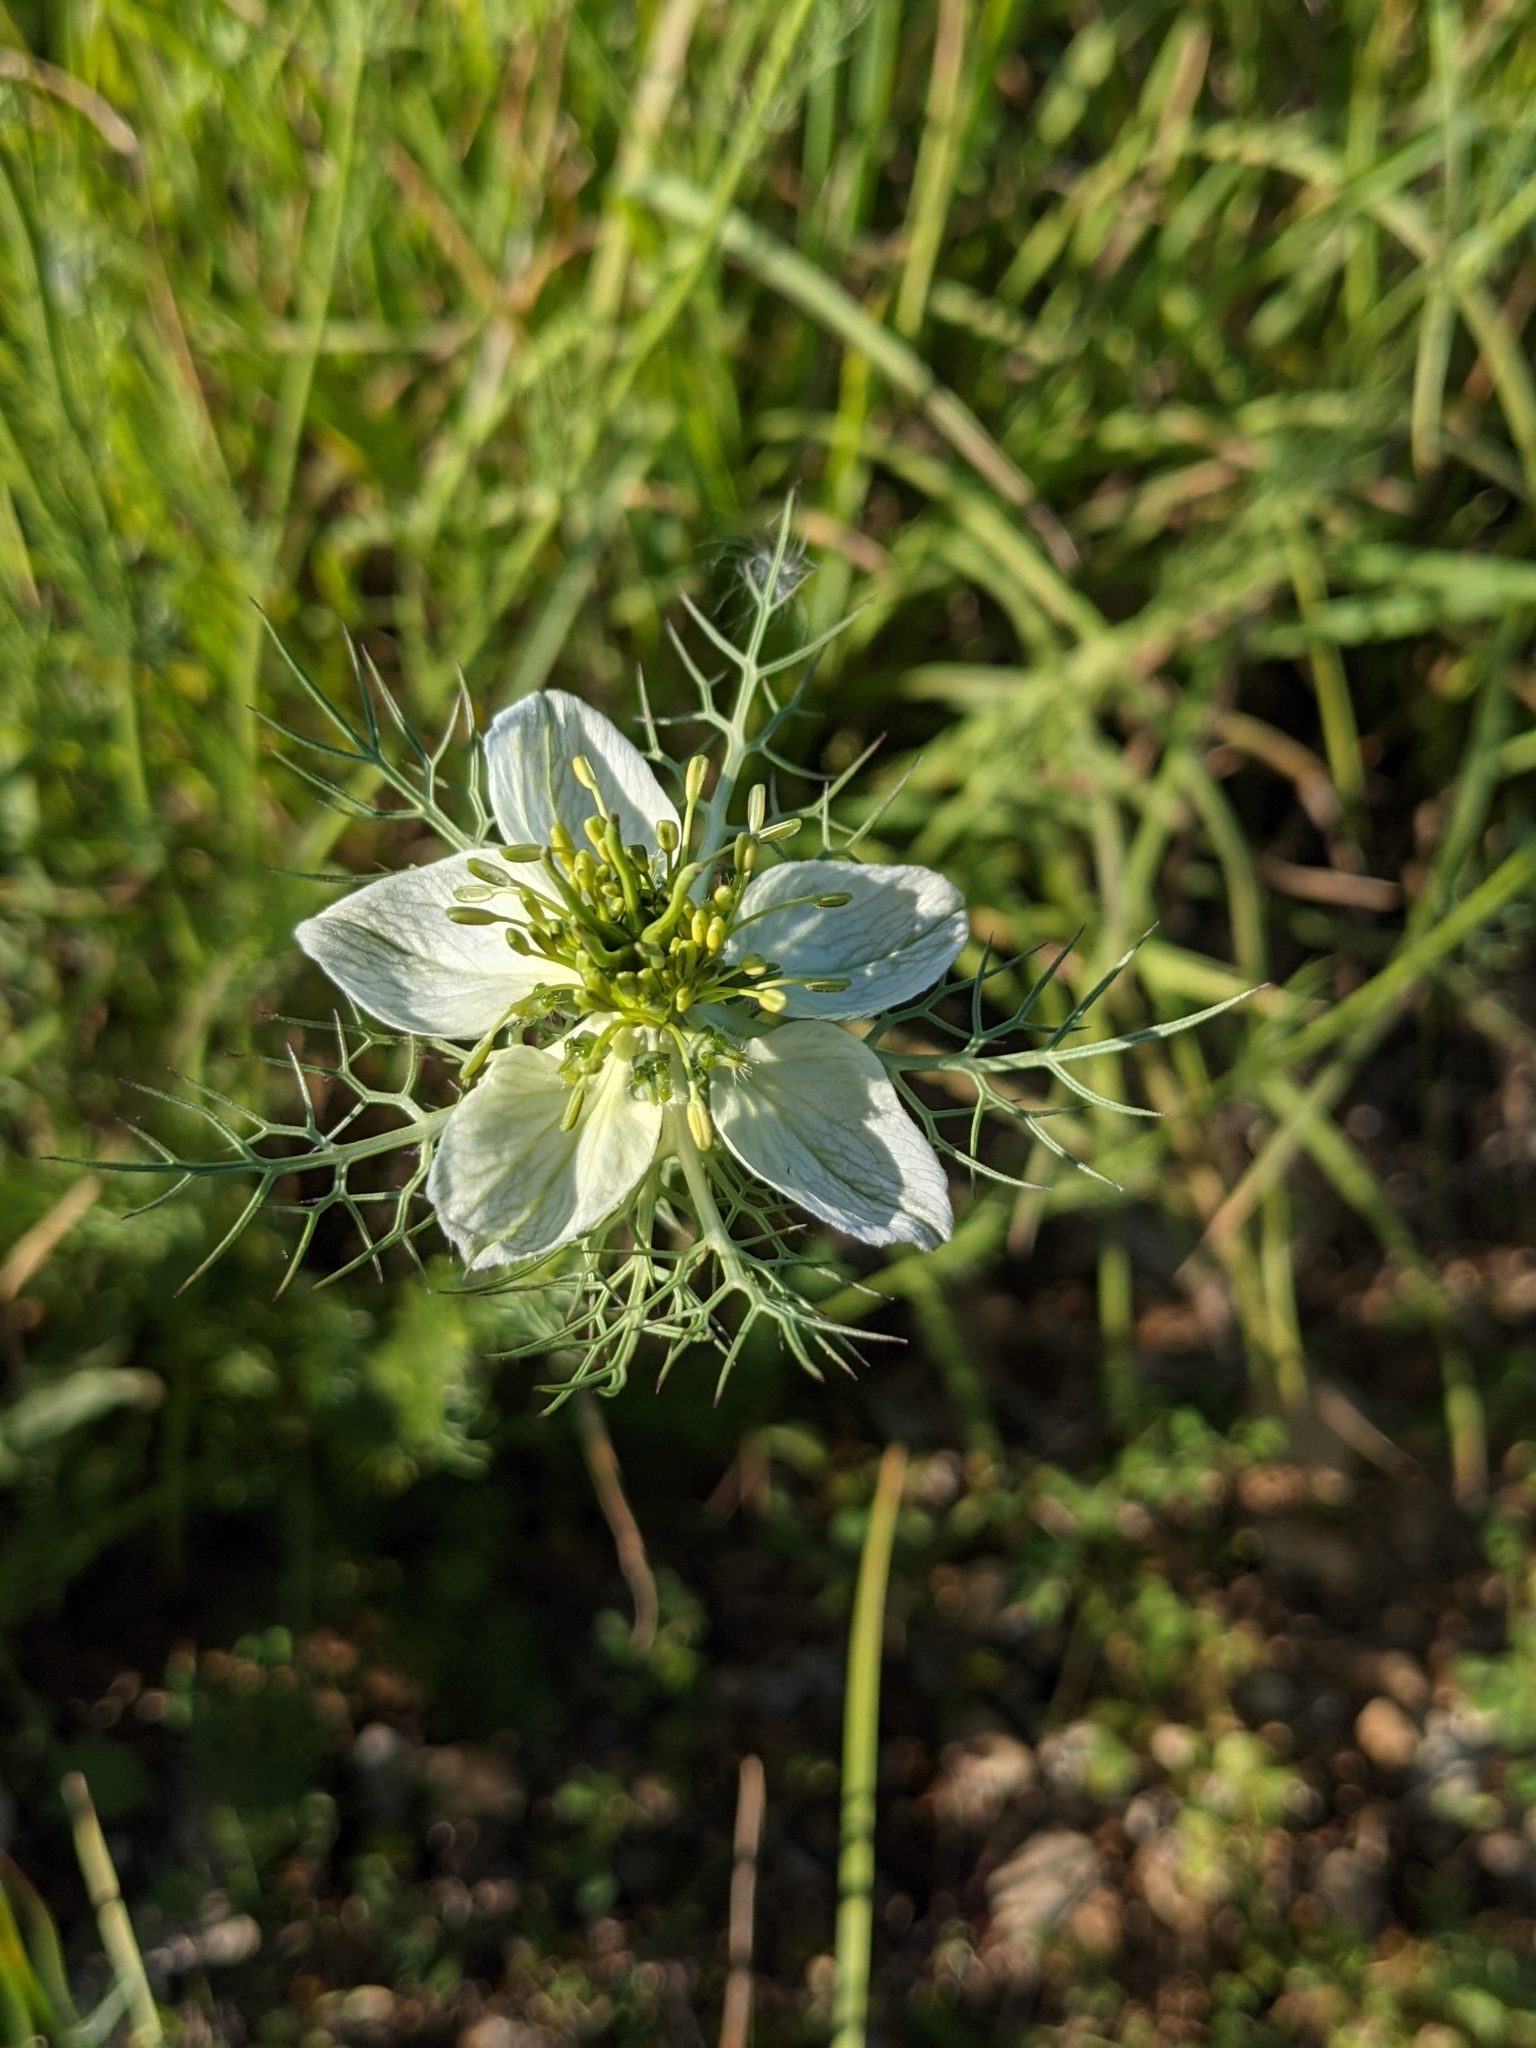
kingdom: Plantae
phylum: Tracheophyta
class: Magnoliopsida
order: Ranunculales
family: Ranunculaceae
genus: Nigella
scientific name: Nigella damascena
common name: Love-in-a-mist
